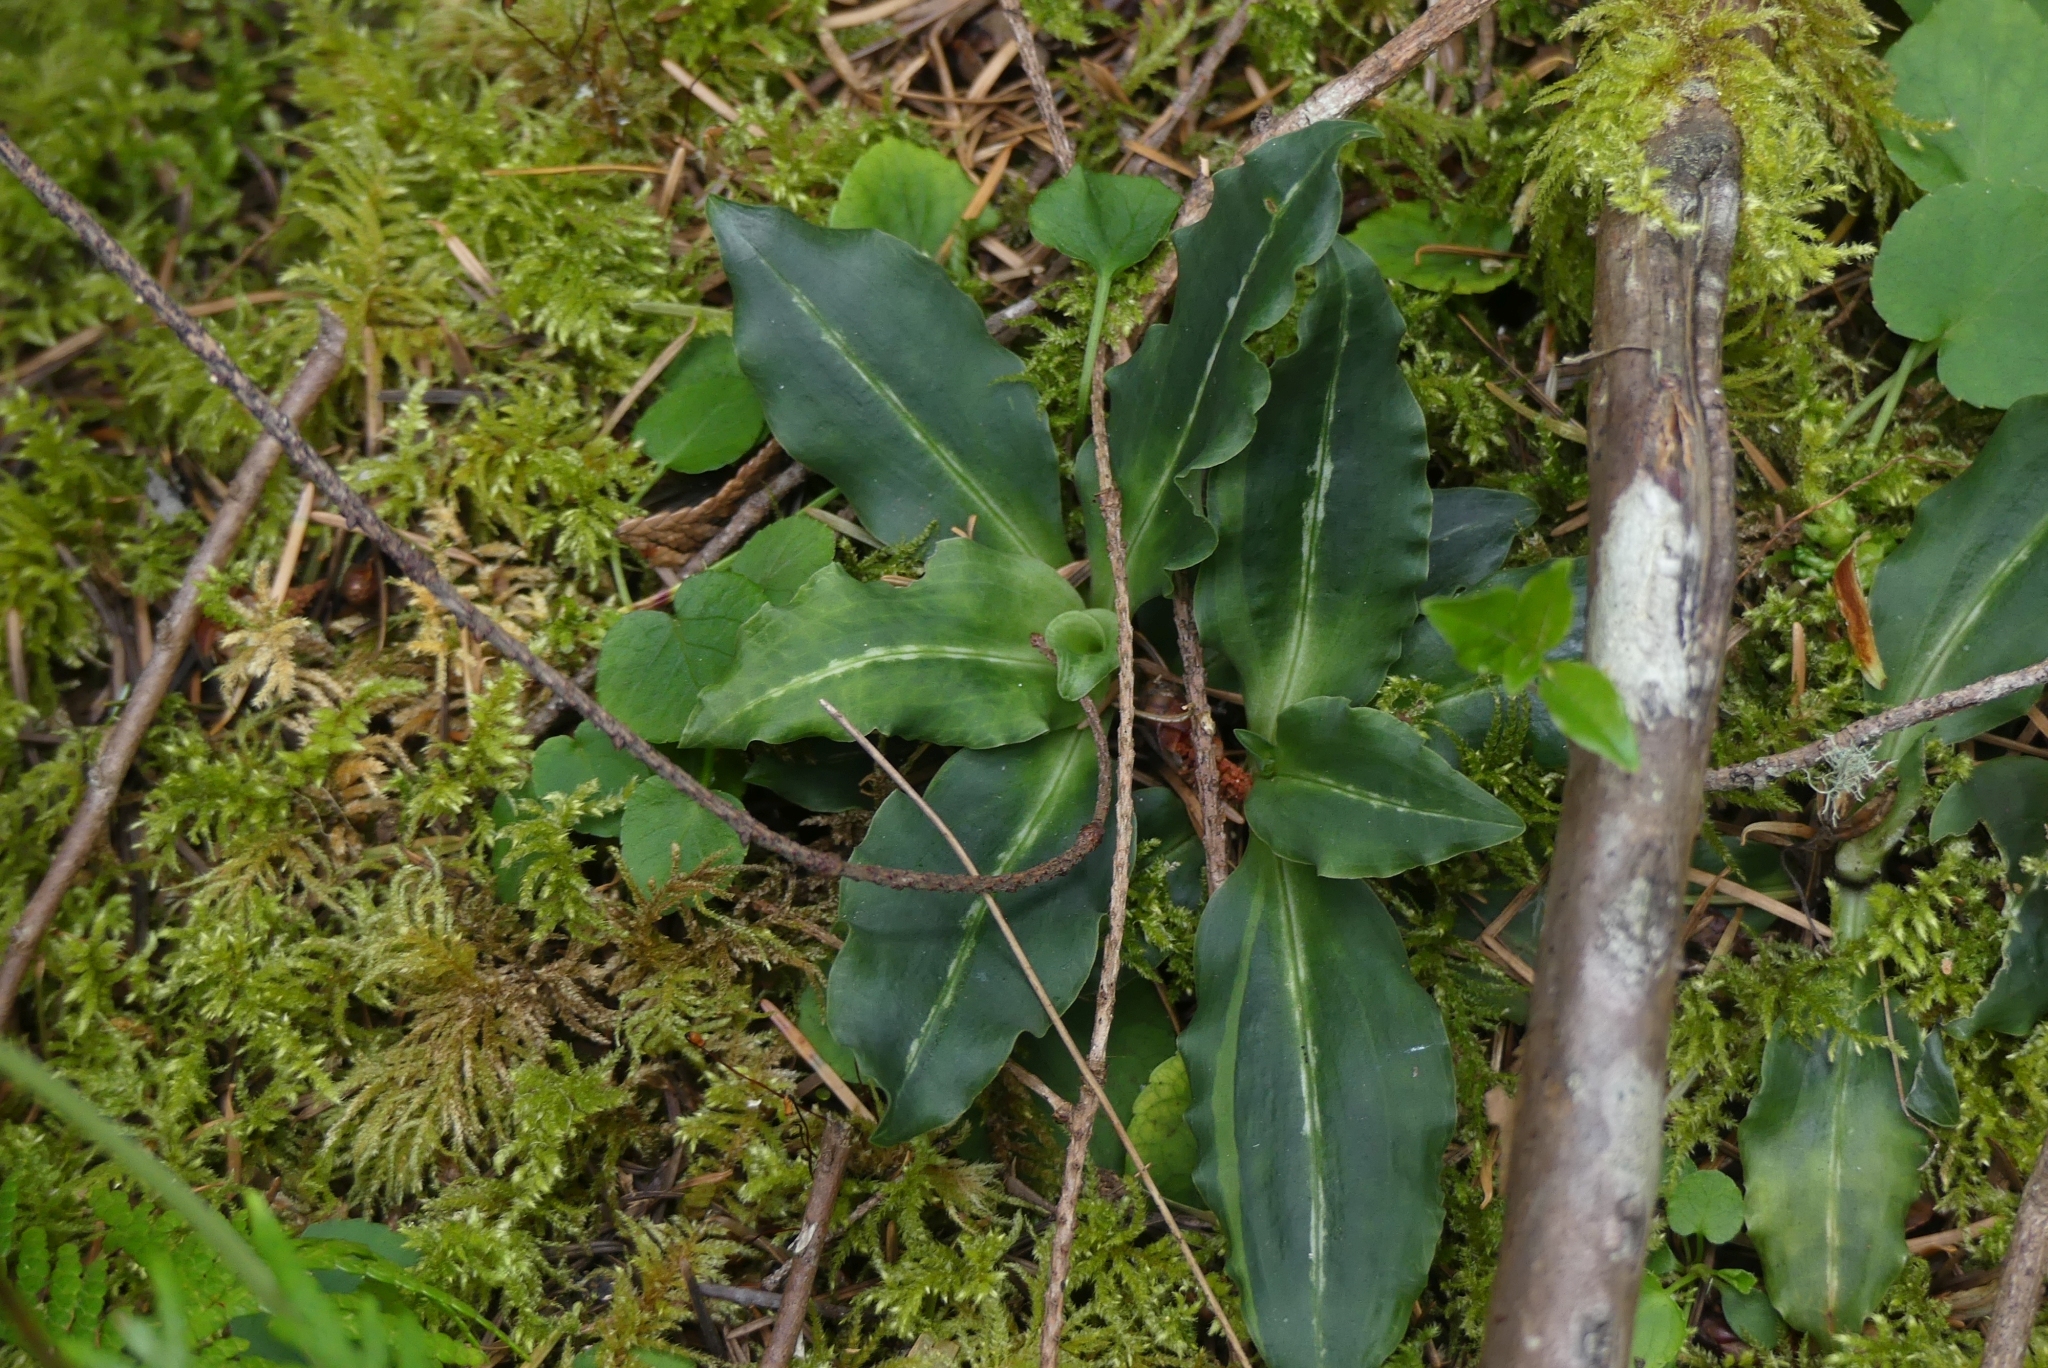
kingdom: Plantae
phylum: Tracheophyta
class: Liliopsida
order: Asparagales
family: Orchidaceae
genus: Goodyera
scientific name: Goodyera oblongifolia
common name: Giant rattlesnake-plantain
